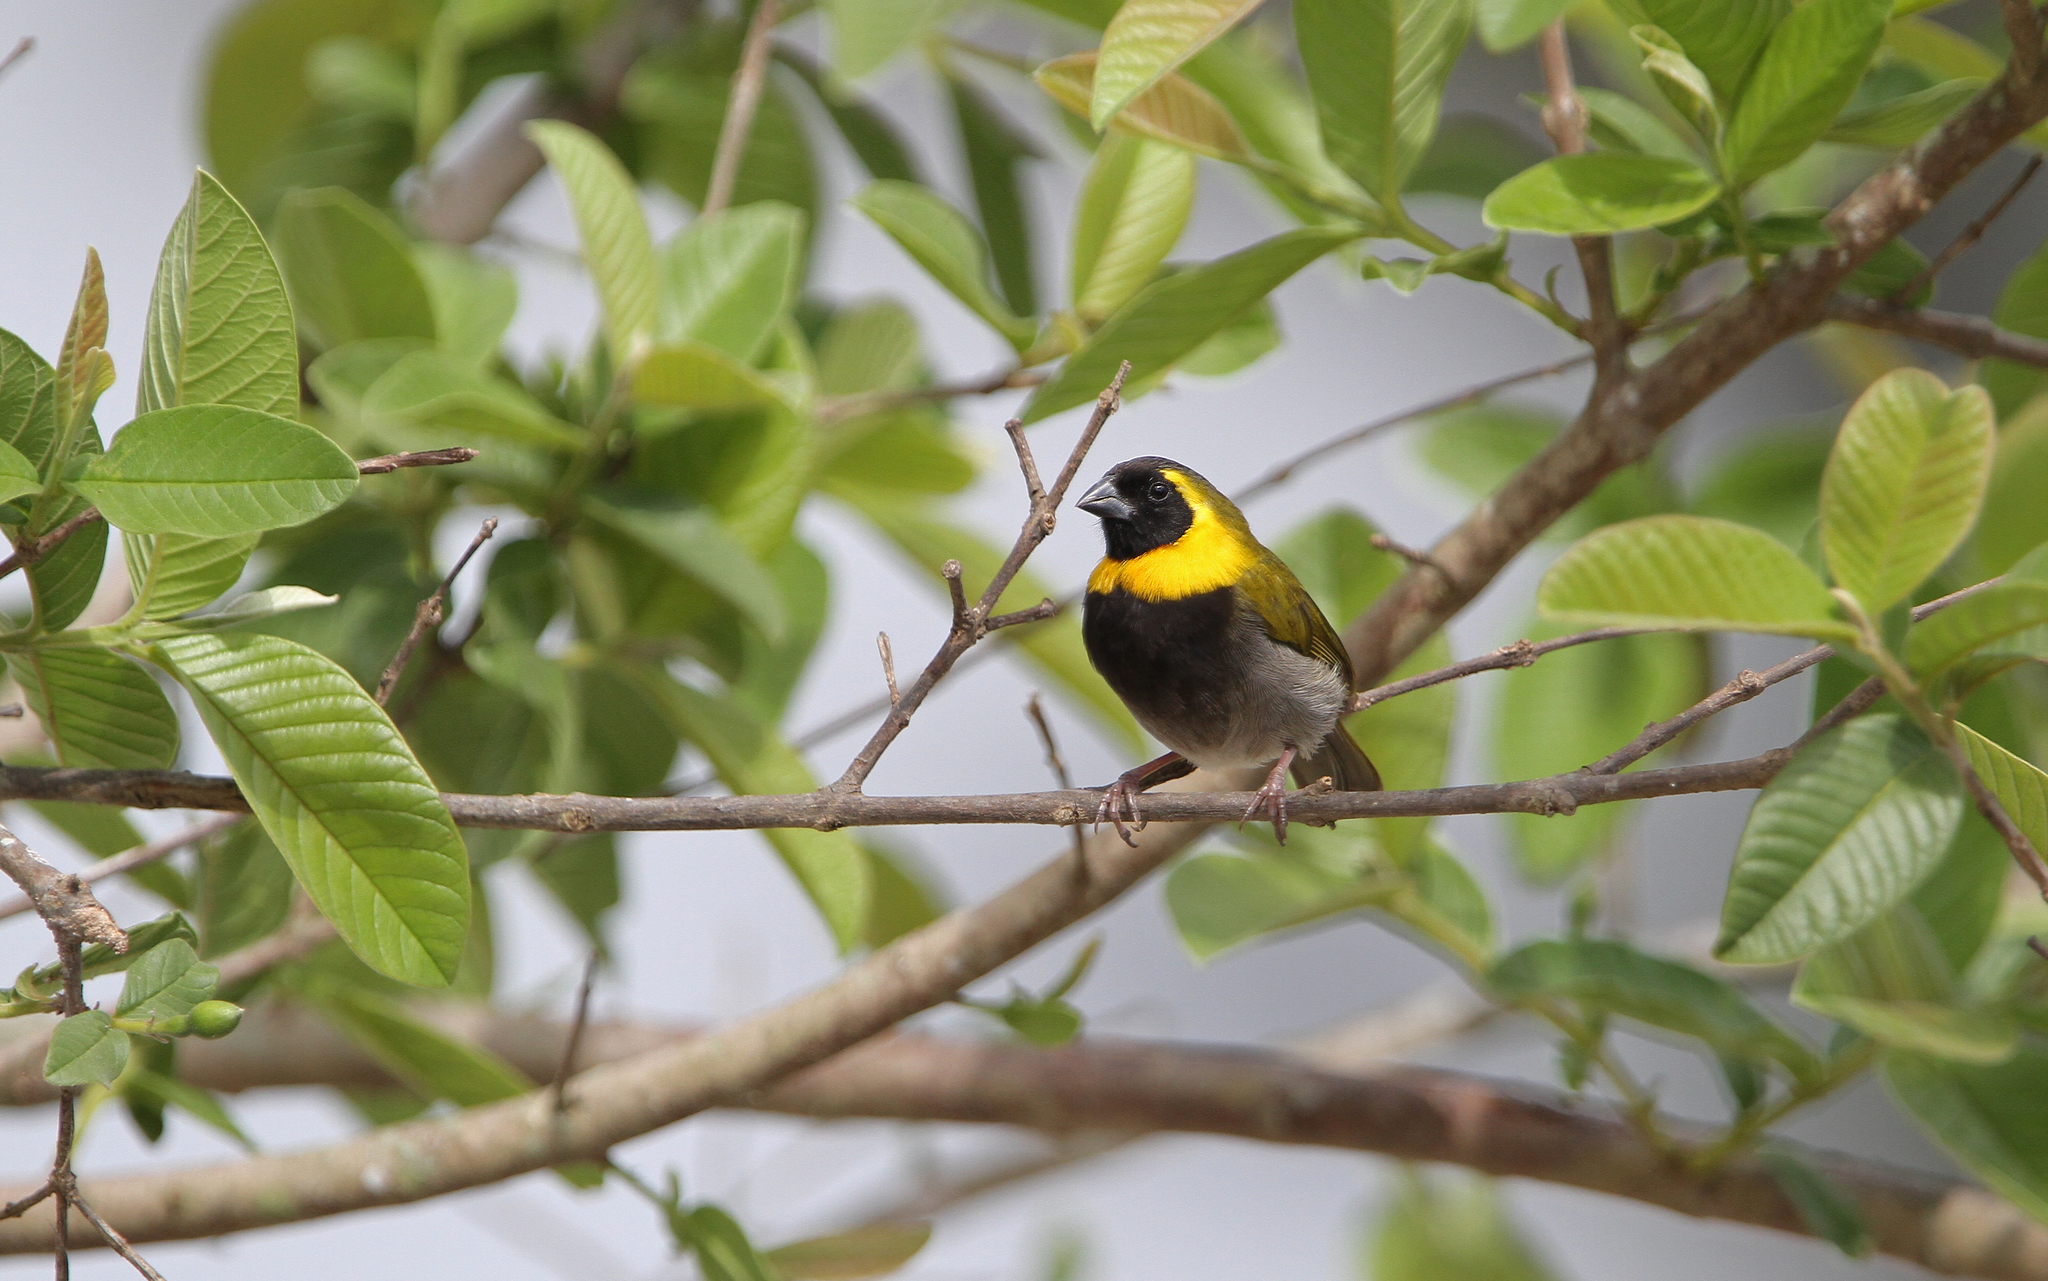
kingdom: Animalia
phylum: Chordata
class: Aves
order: Passeriformes
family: Thraupidae
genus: Phonipara
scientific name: Phonipara canora
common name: Cuban grassquit
